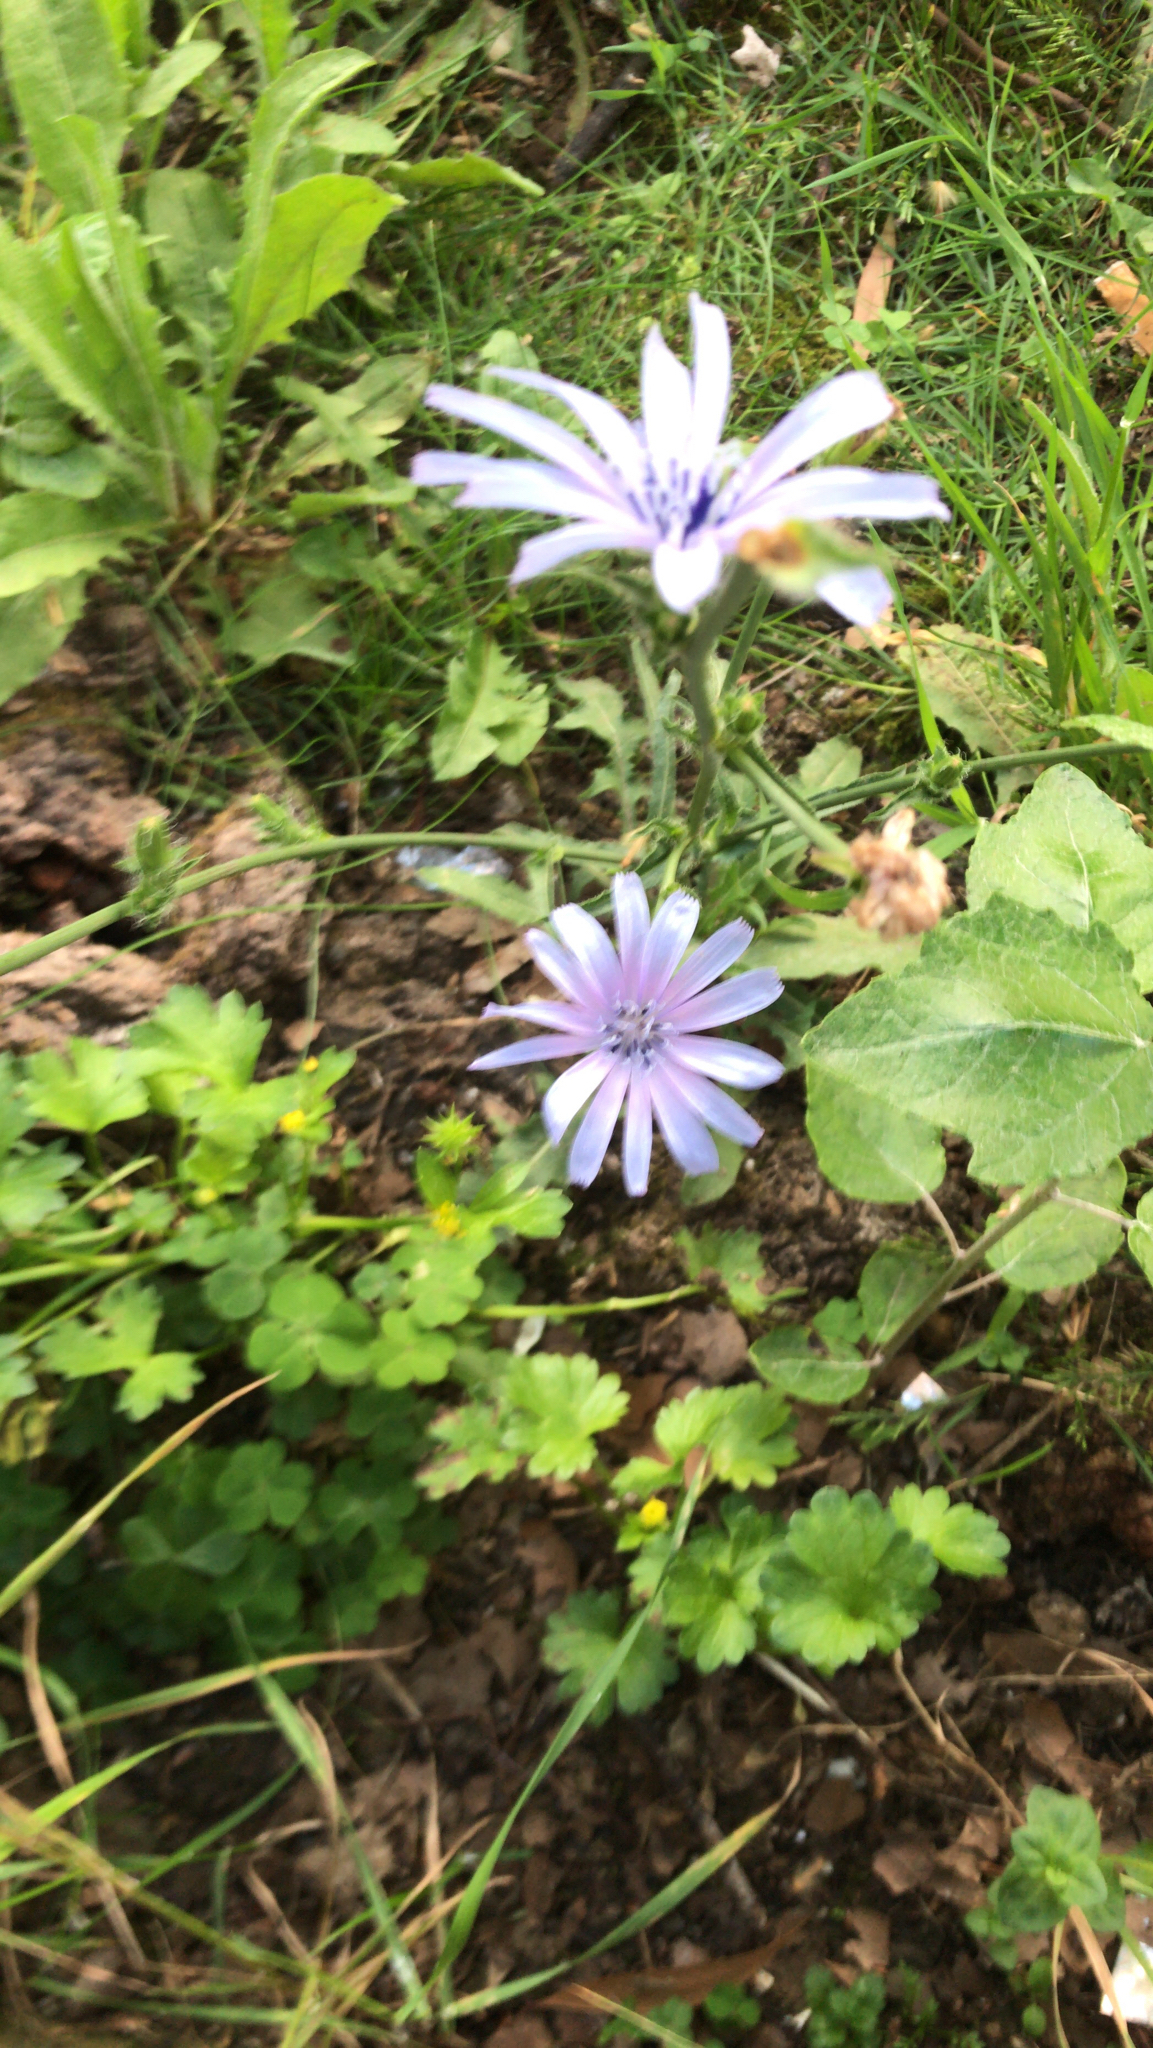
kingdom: Plantae
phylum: Tracheophyta
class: Magnoliopsida
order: Asterales
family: Asteraceae
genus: Cichorium
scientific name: Cichorium intybus
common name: Chicory
